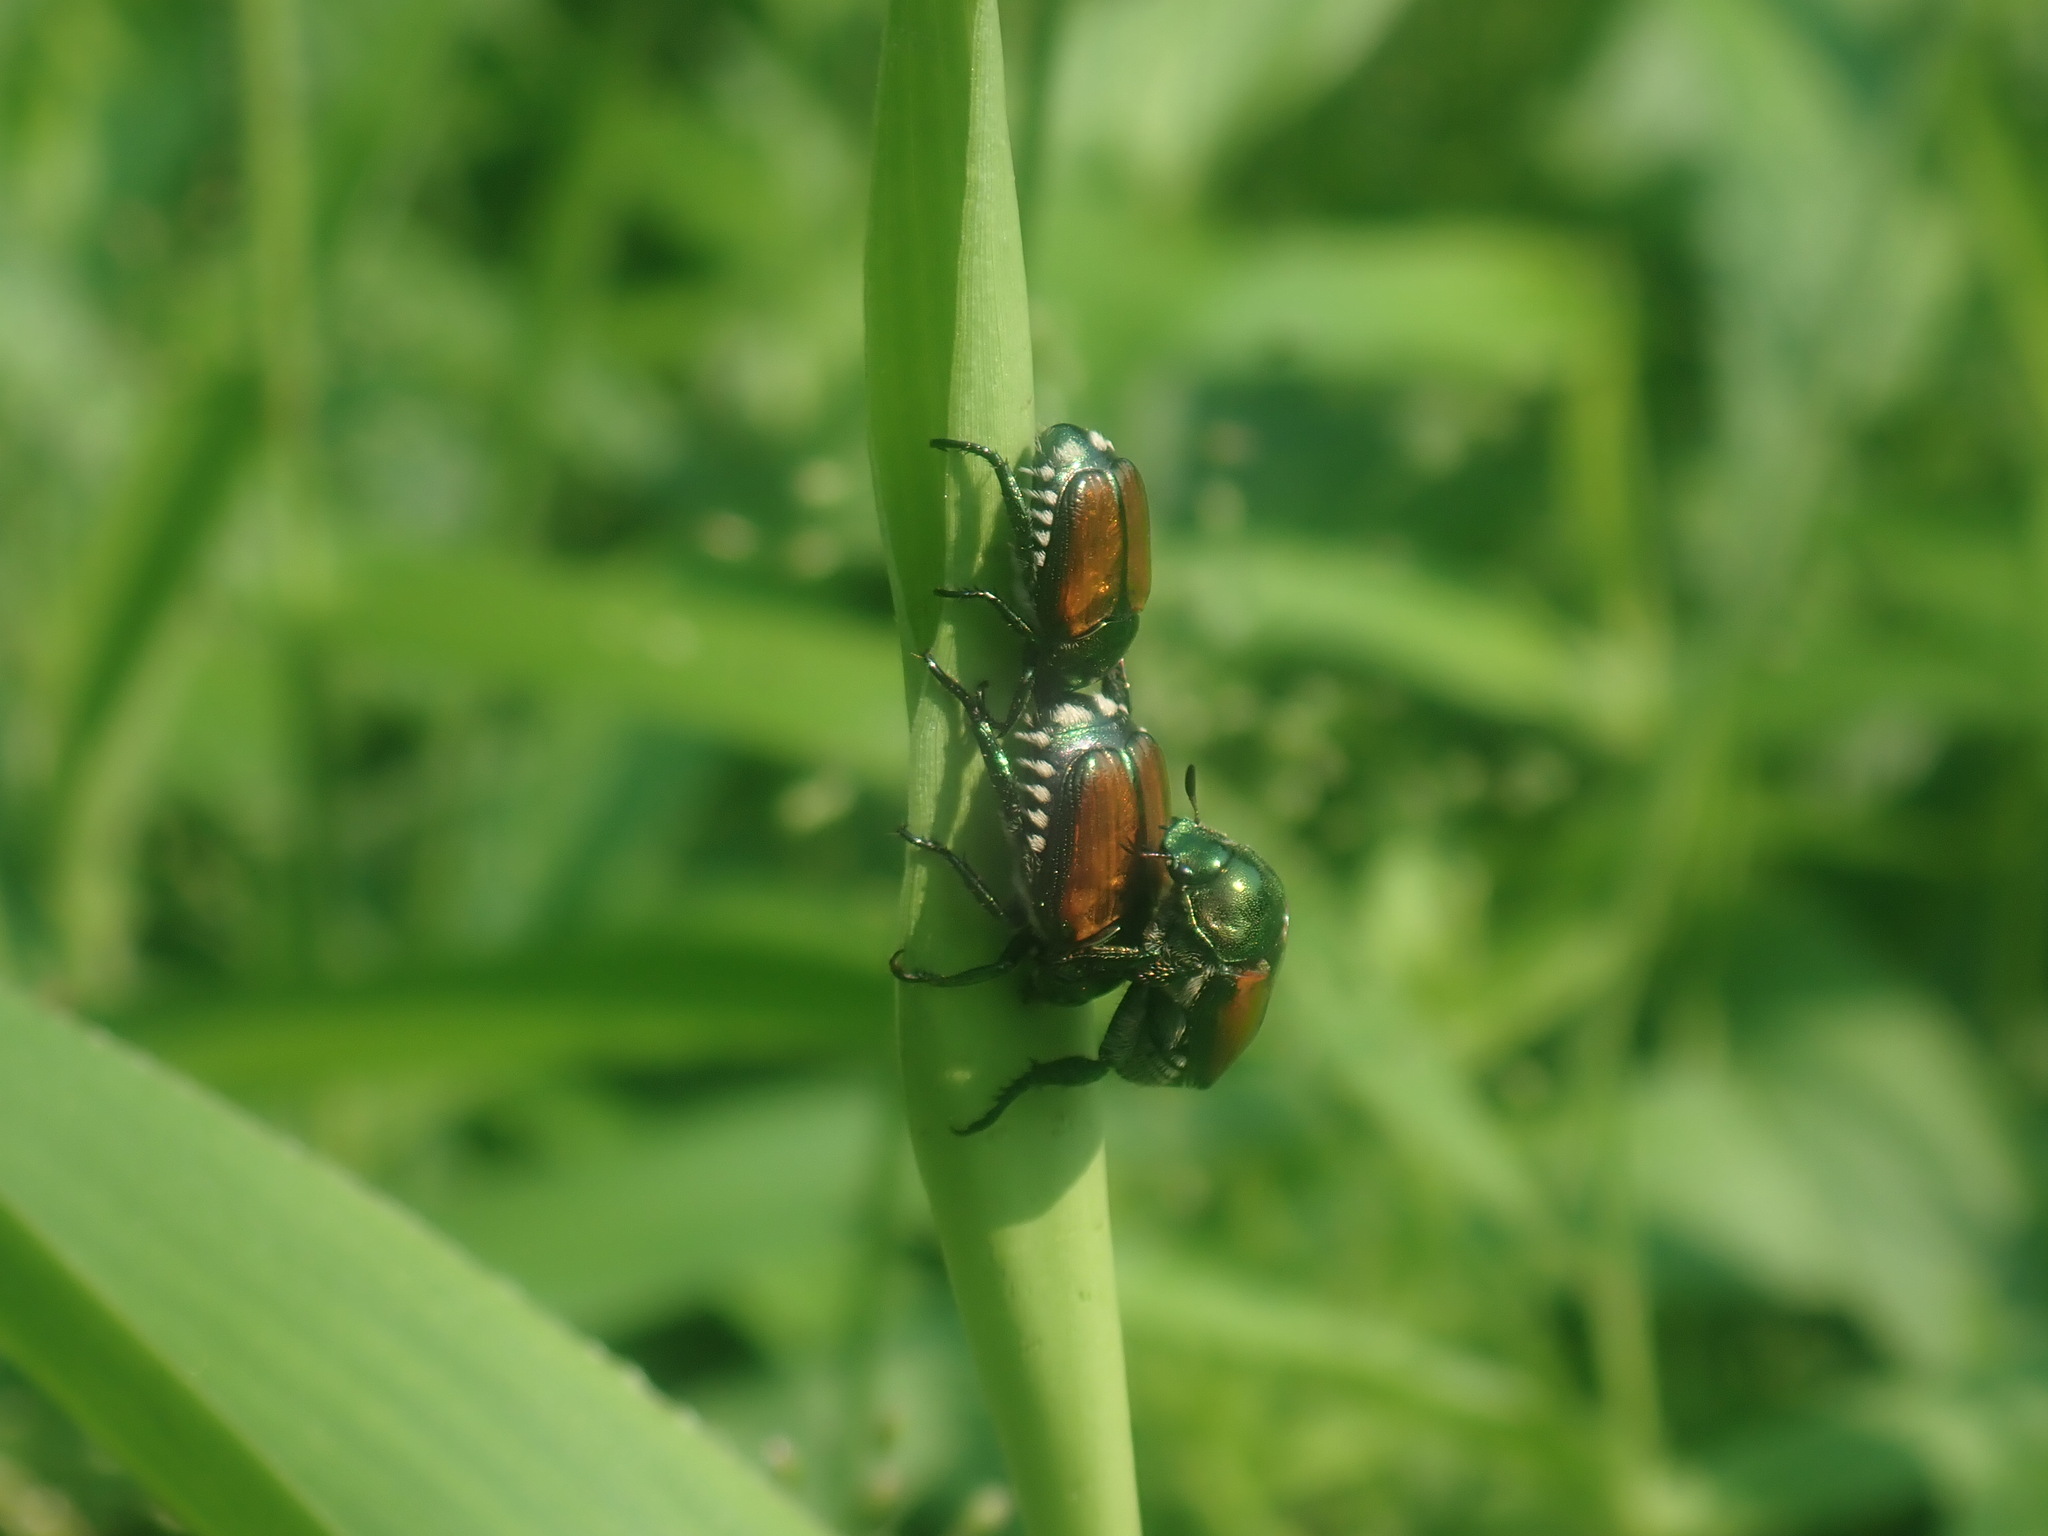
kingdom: Animalia
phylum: Arthropoda
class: Insecta
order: Coleoptera
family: Scarabaeidae
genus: Popillia
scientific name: Popillia japonica
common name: Japanese beetle
